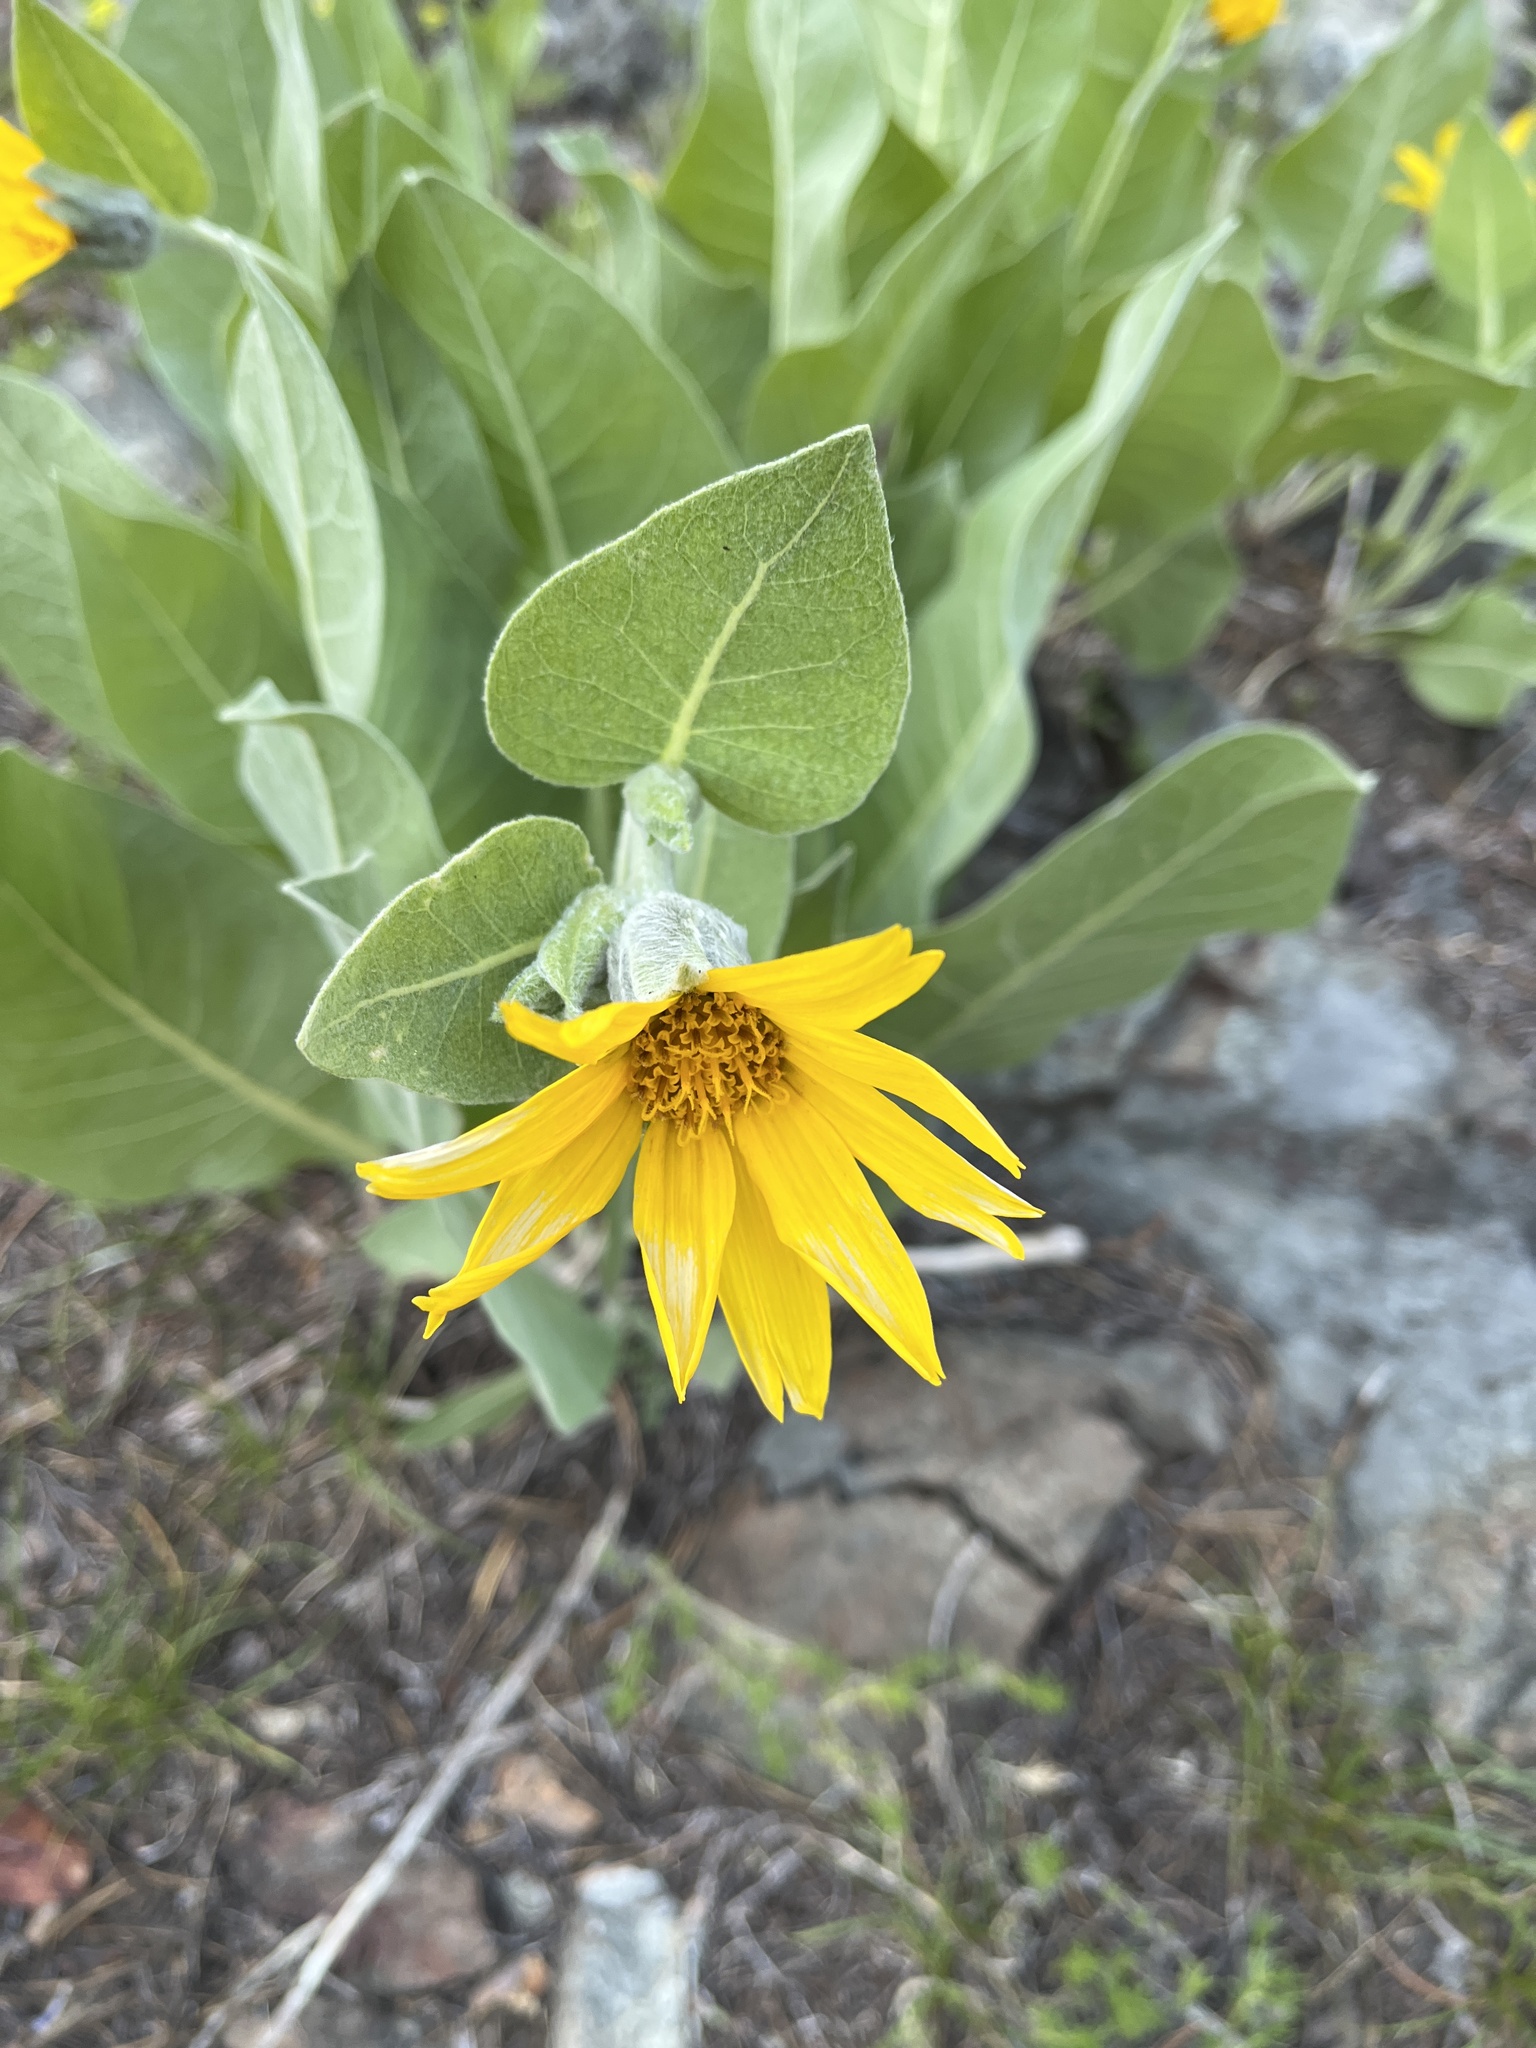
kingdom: Plantae
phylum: Tracheophyta
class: Magnoliopsida
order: Asterales
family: Asteraceae
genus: Wyethia
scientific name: Wyethia mollis
